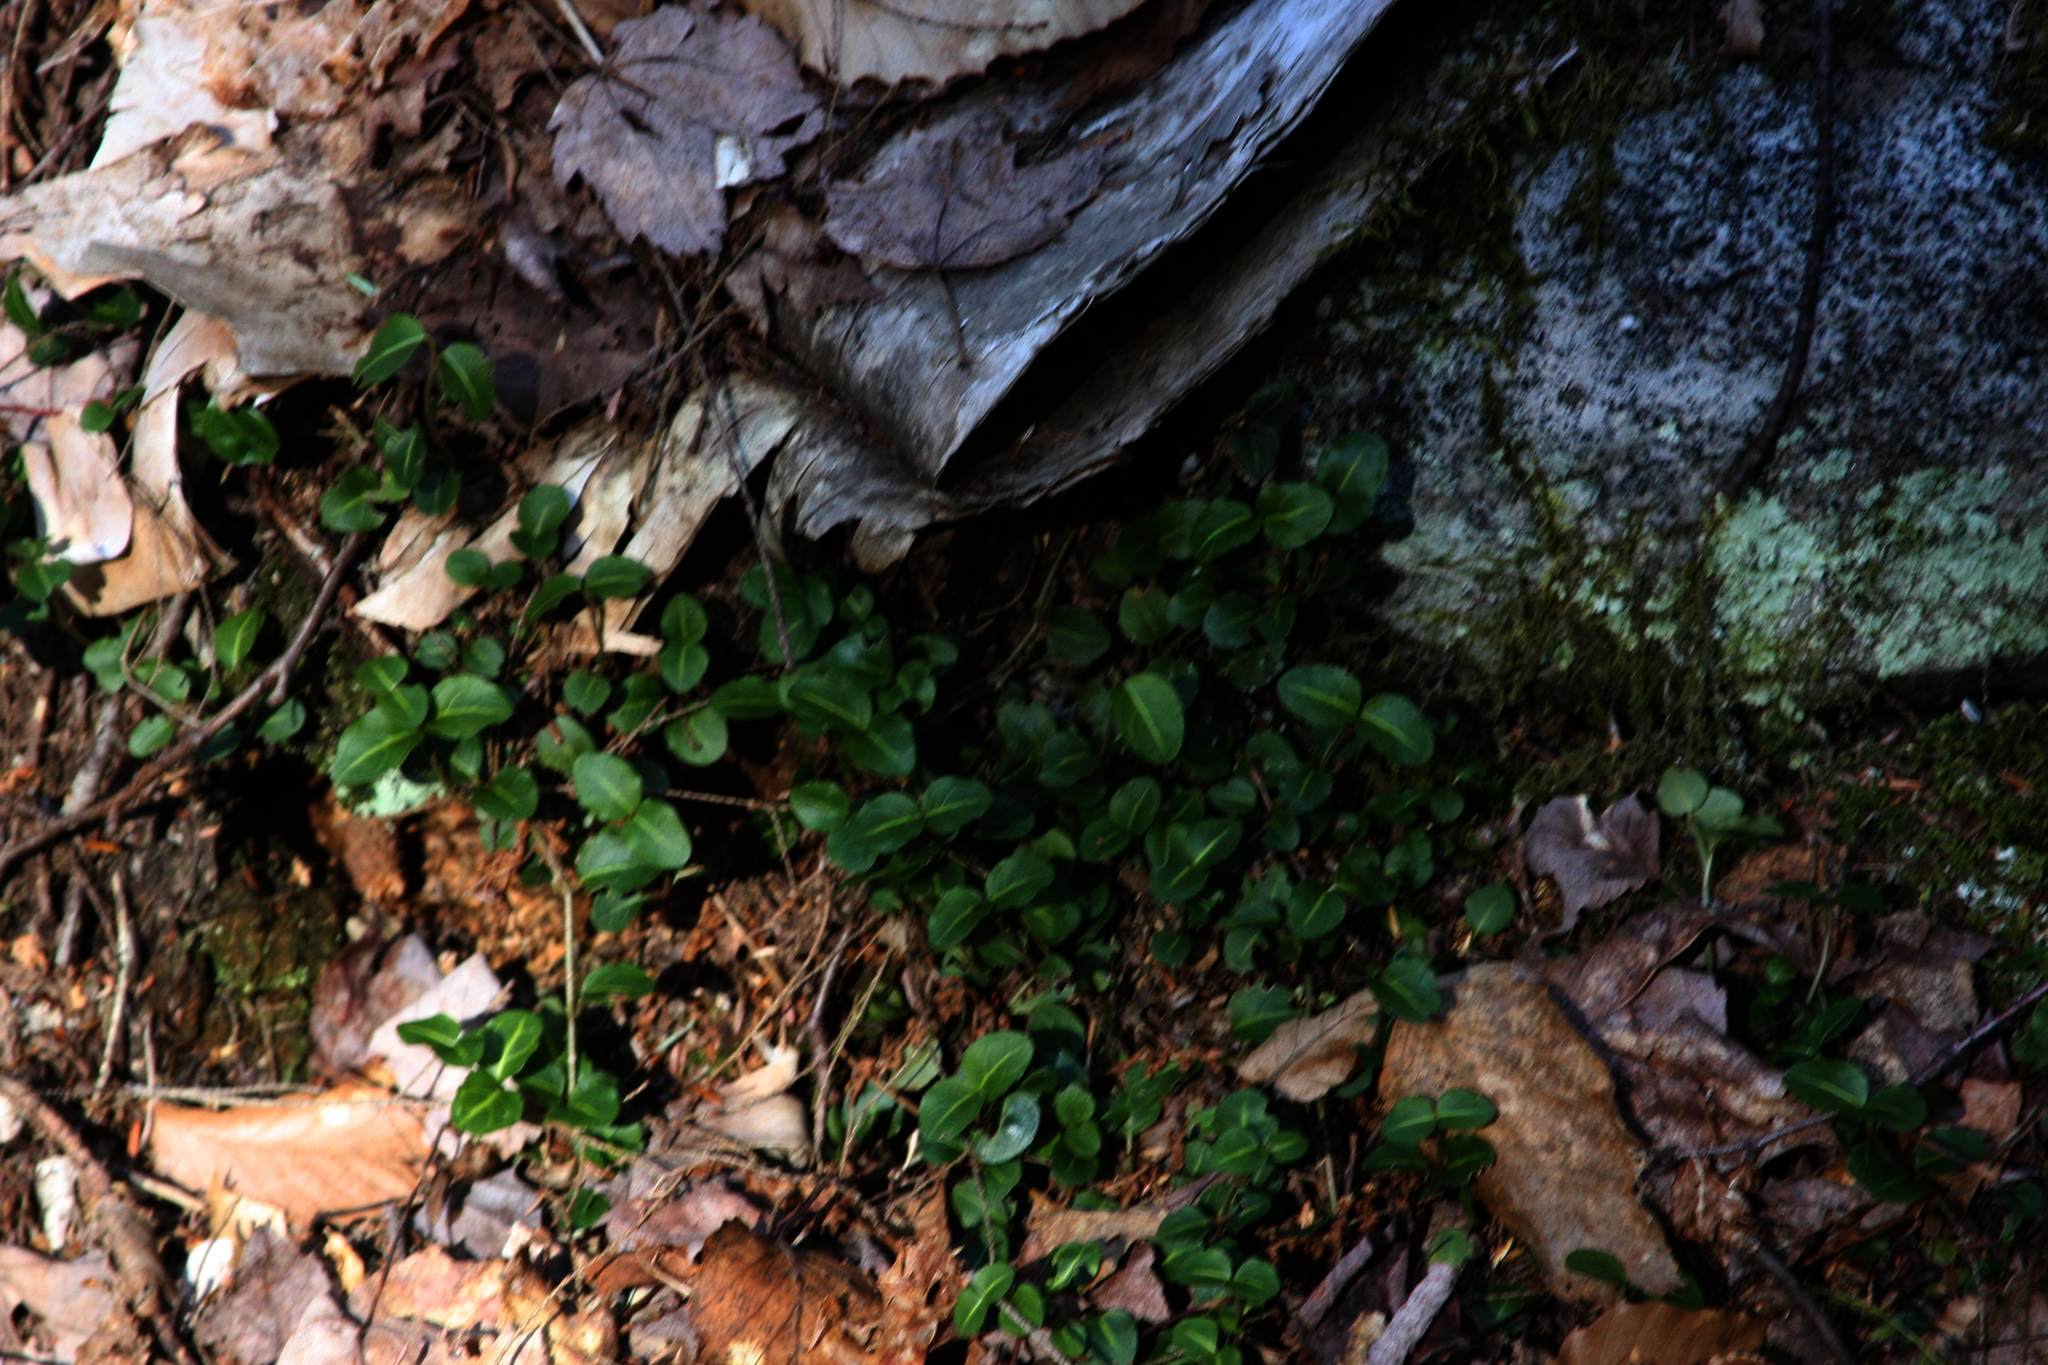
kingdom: Plantae
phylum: Tracheophyta
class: Magnoliopsida
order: Gentianales
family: Rubiaceae
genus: Mitchella
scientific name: Mitchella repens
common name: Partridge-berry
